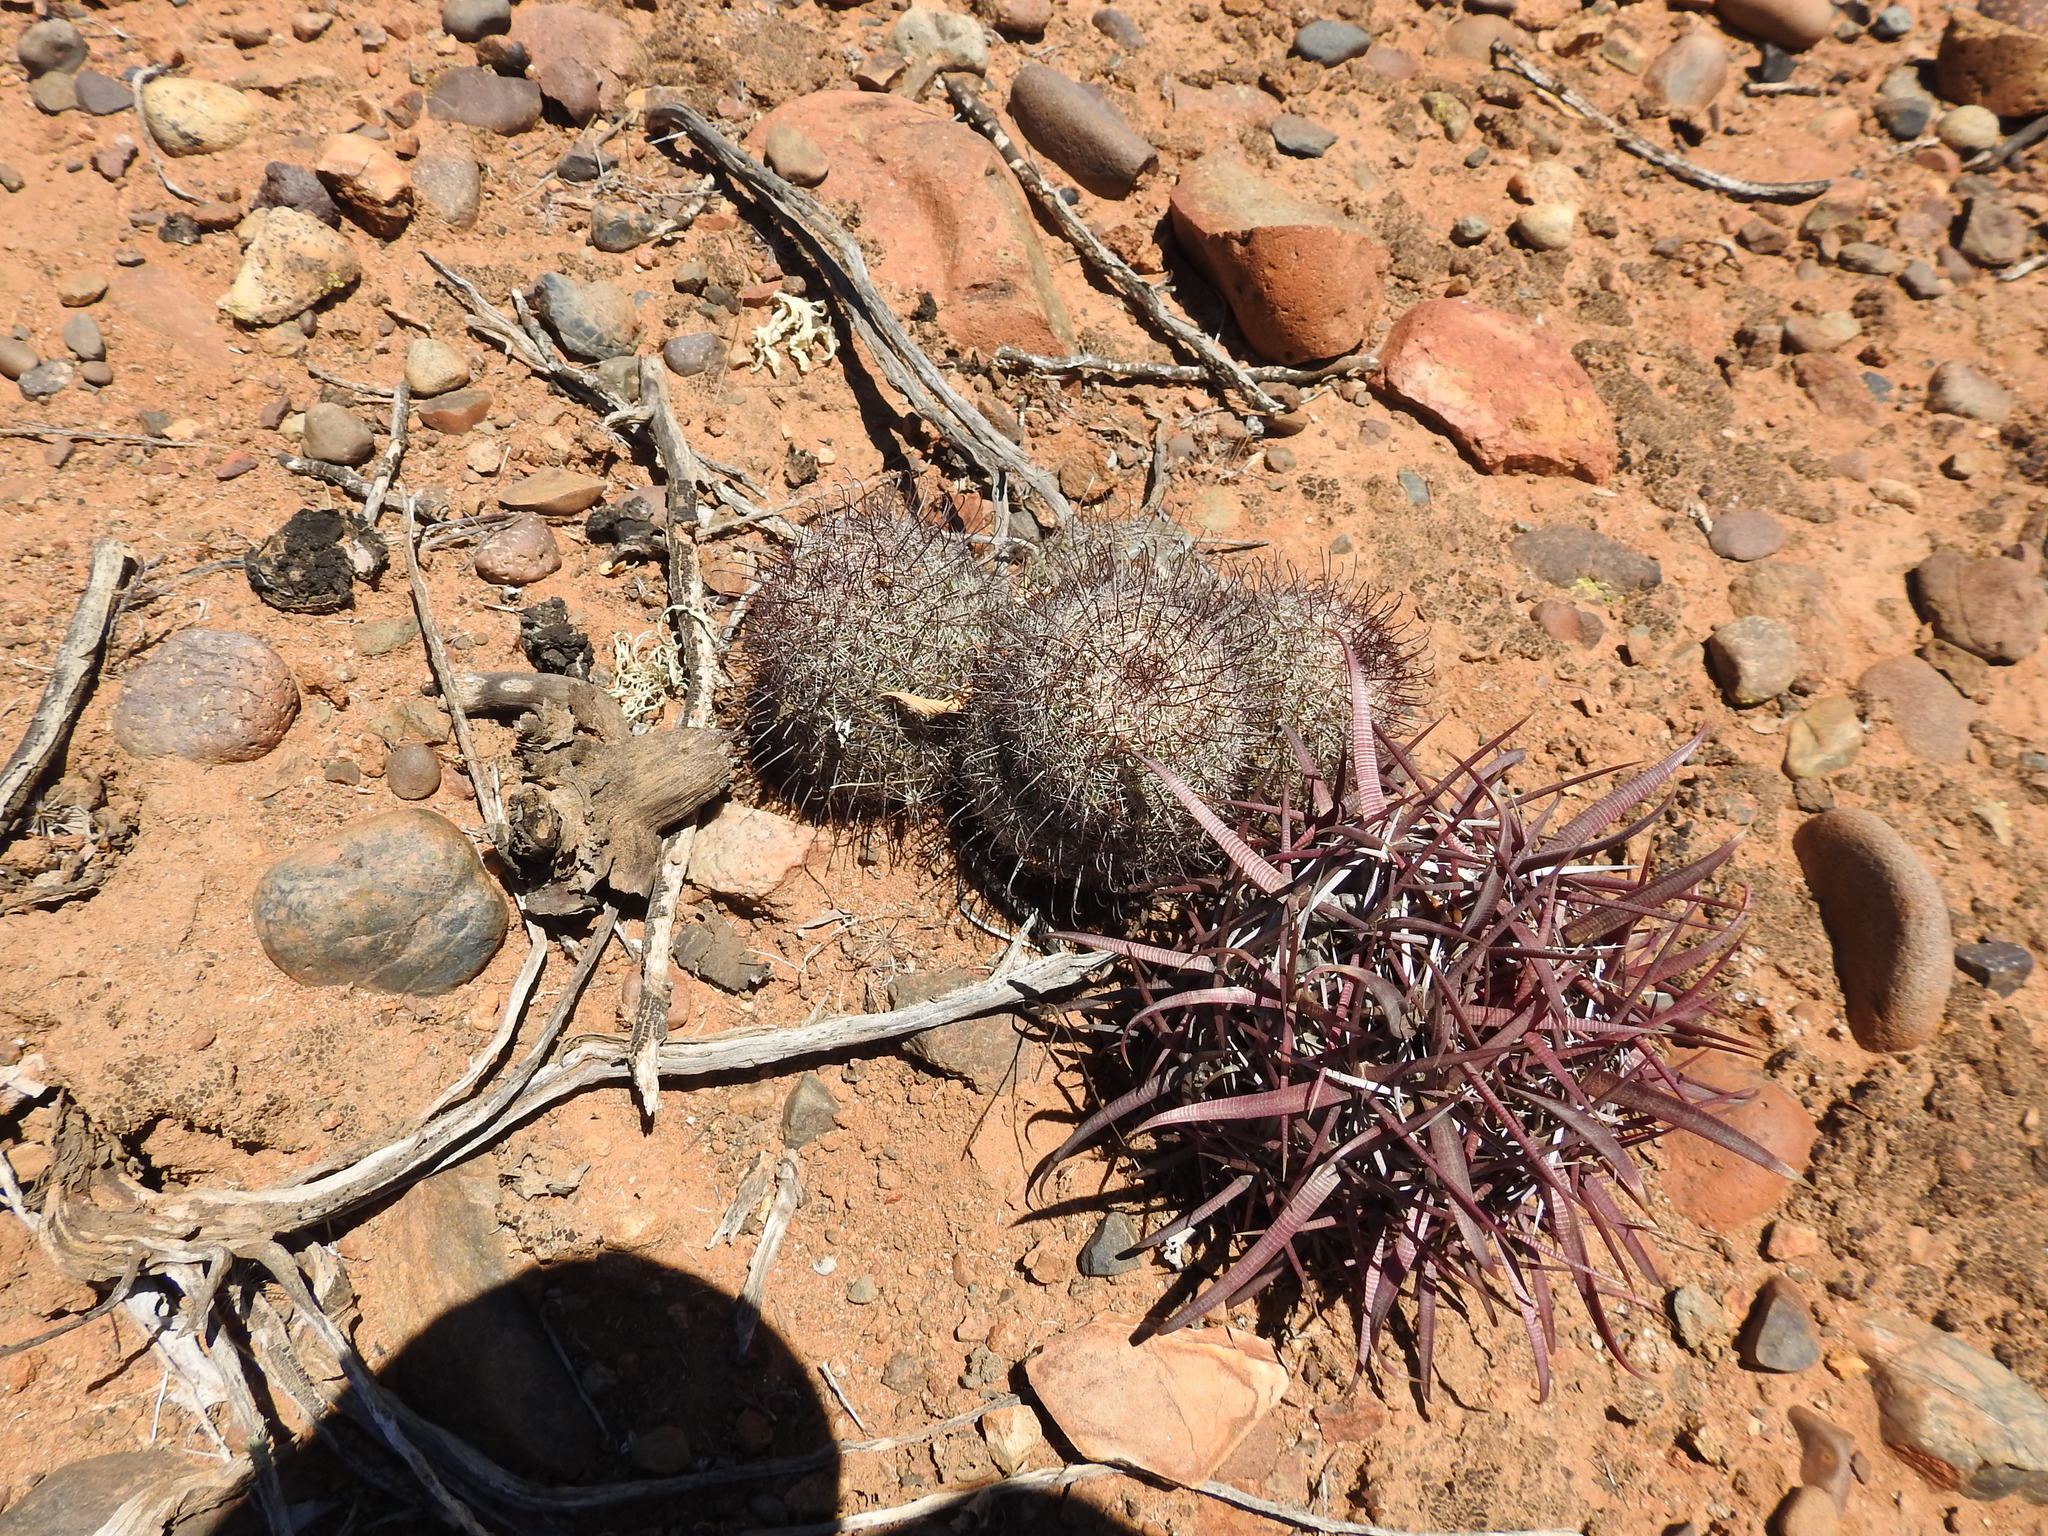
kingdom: Plantae
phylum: Tracheophyta
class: Magnoliopsida
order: Caryophyllales
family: Cactaceae
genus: Cochemiea
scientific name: Cochemiea dioica
